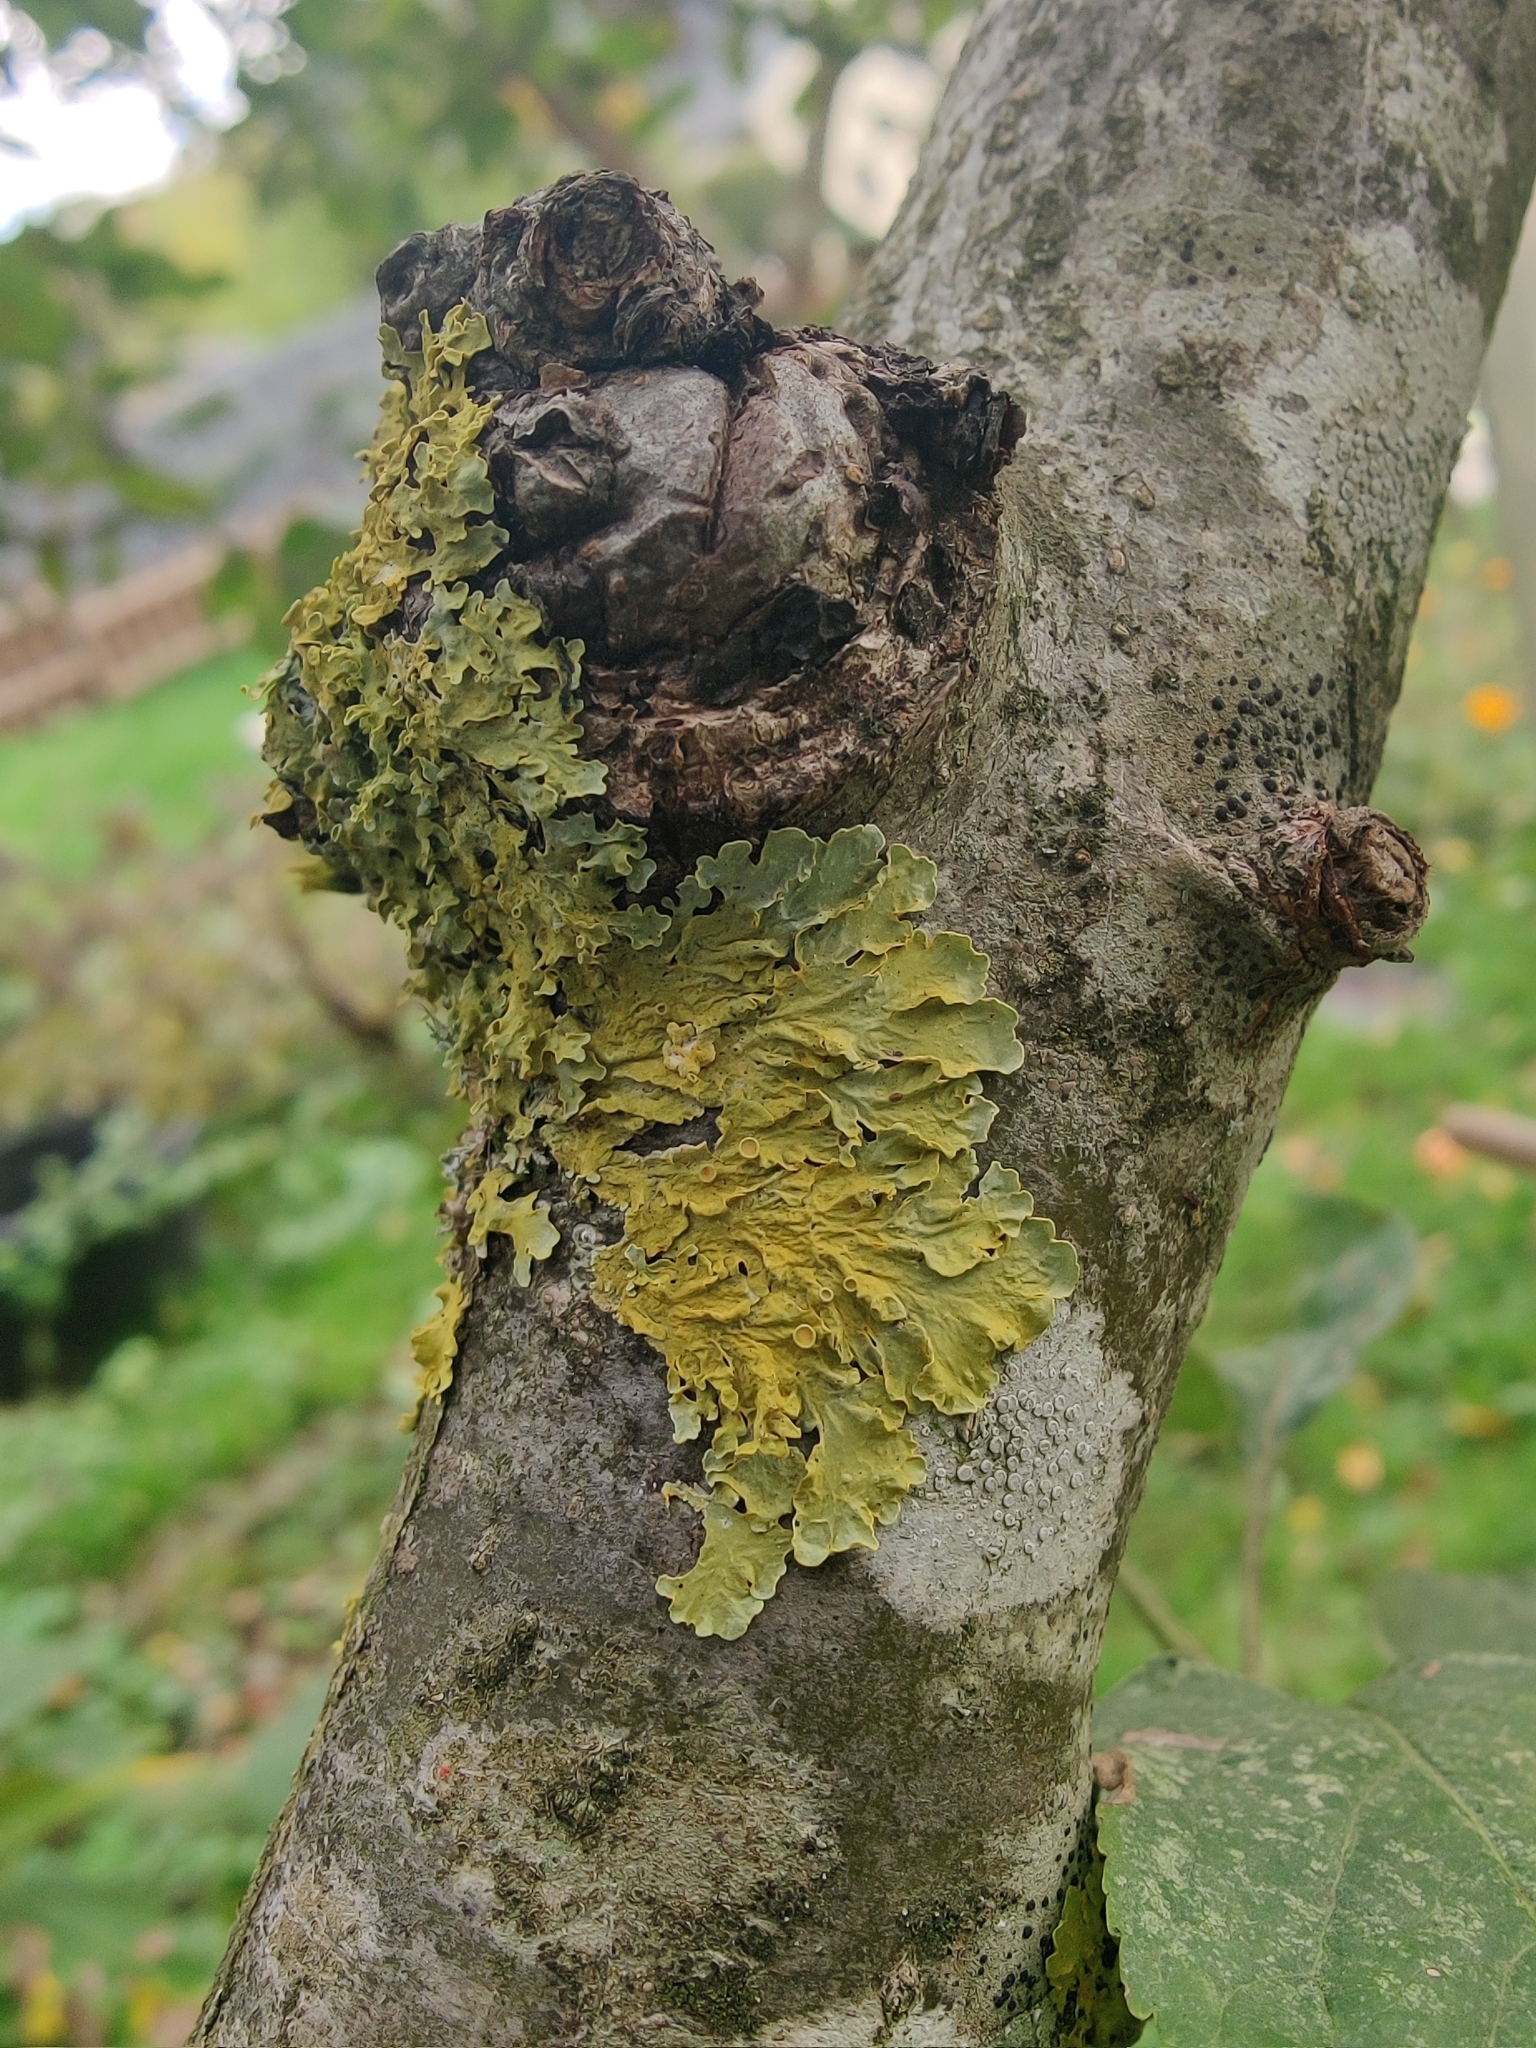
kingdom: Fungi
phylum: Ascomycota
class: Lecanoromycetes
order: Teloschistales
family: Teloschistaceae
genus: Xanthoria
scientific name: Xanthoria parietina
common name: Common orange lichen
